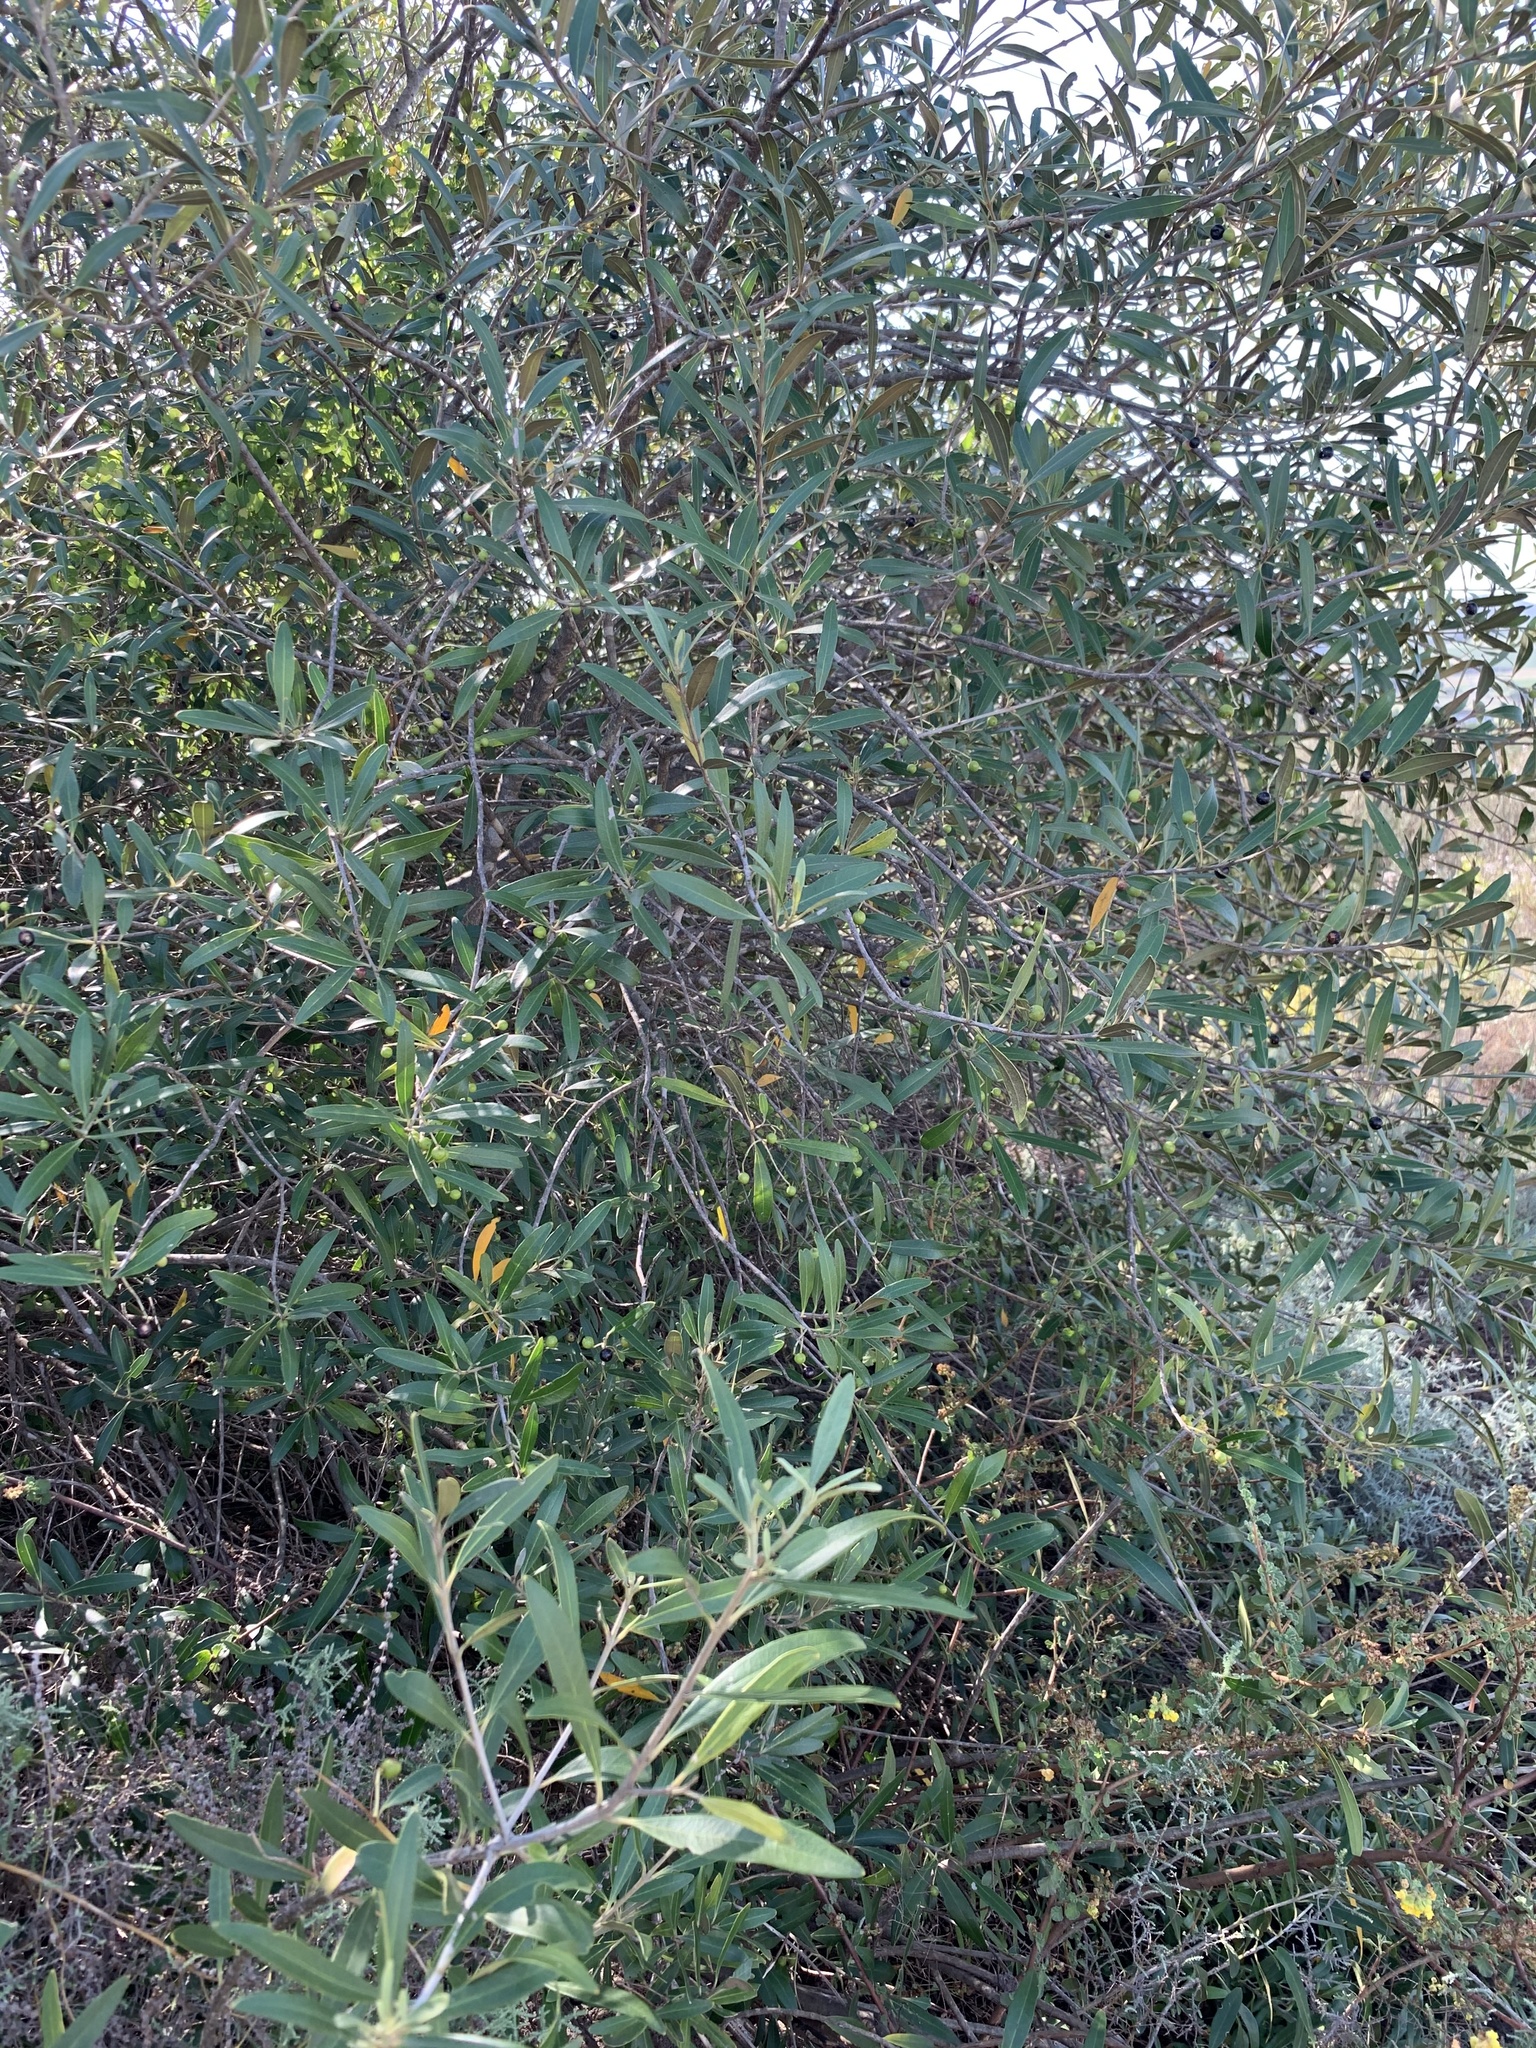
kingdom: Plantae
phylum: Tracheophyta
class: Magnoliopsida
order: Lamiales
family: Oleaceae
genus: Olea
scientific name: Olea europaea
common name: Olive
